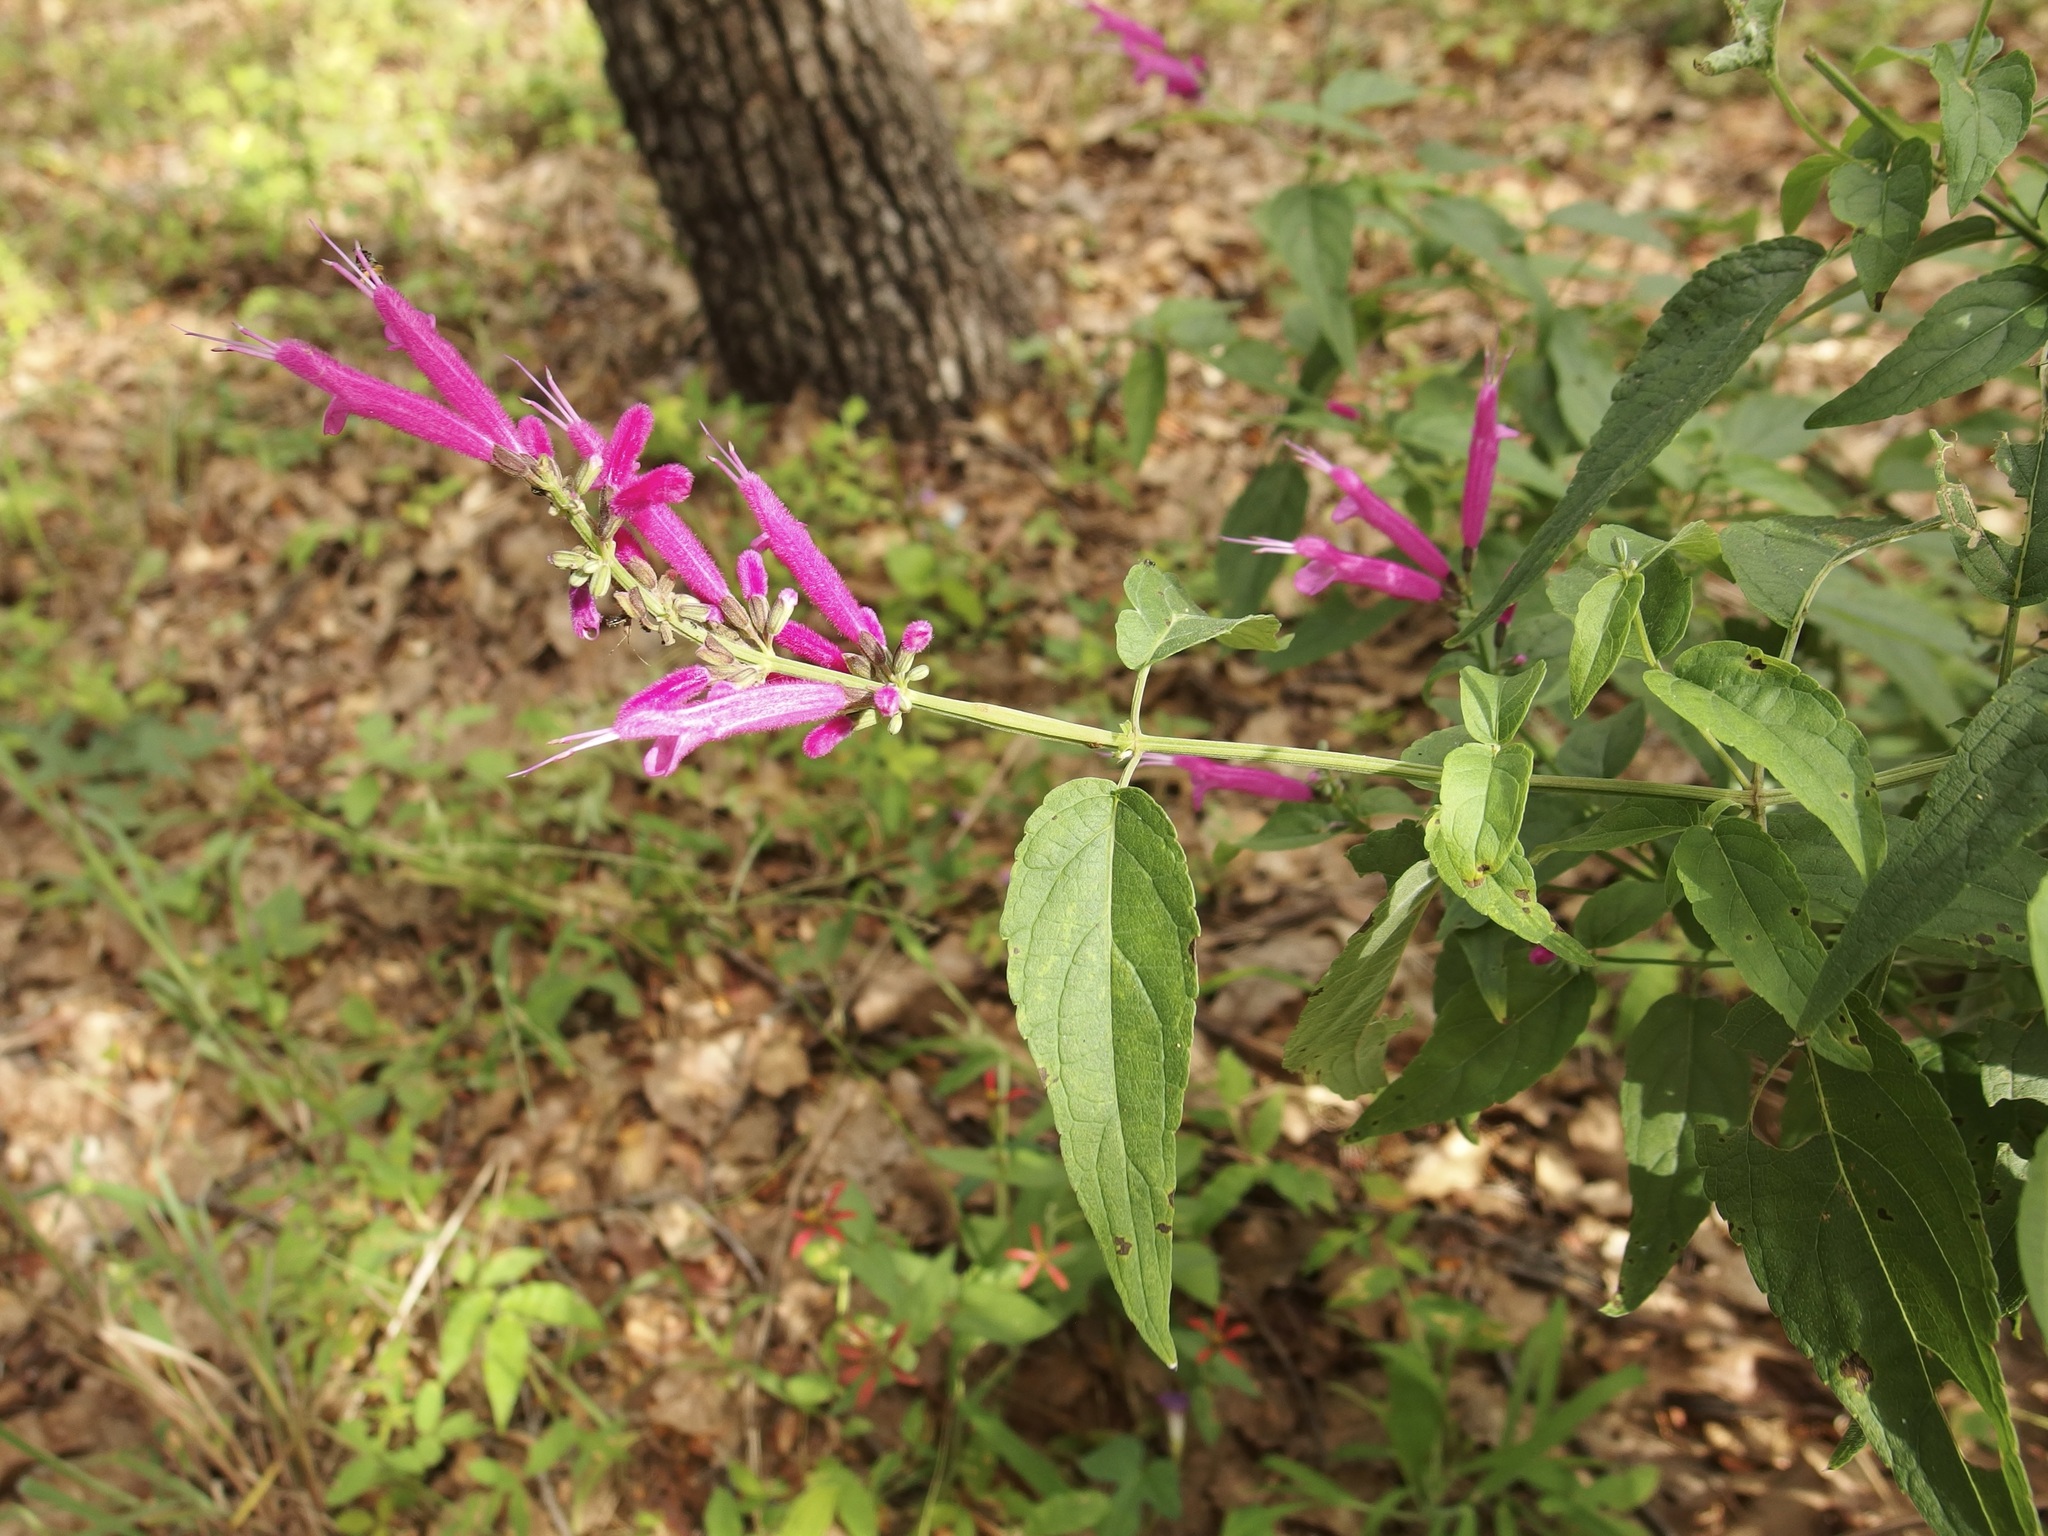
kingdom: Plantae
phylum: Tracheophyta
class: Magnoliopsida
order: Lamiales
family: Lamiaceae
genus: Salvia
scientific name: Salvia iodantha
